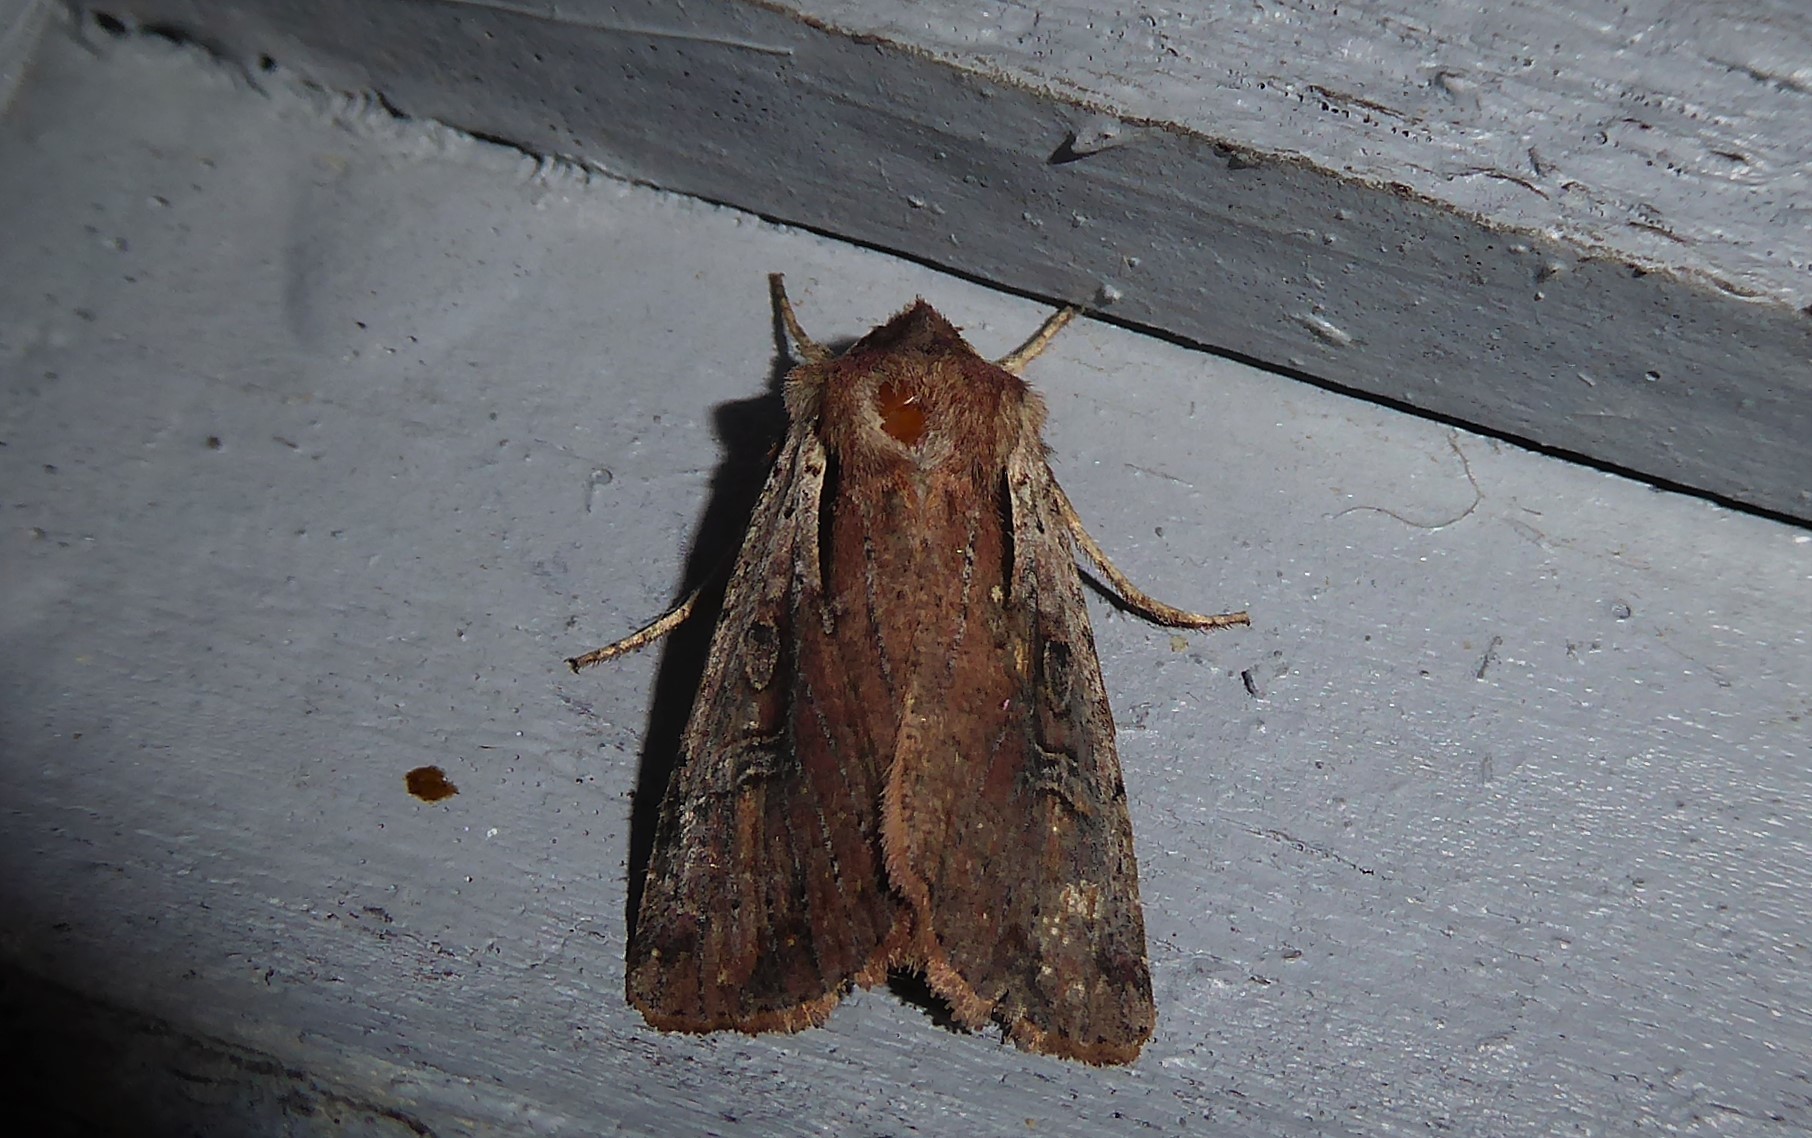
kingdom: Animalia
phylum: Arthropoda
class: Insecta
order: Lepidoptera
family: Noctuidae
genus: Ichneutica
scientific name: Ichneutica atristriga
